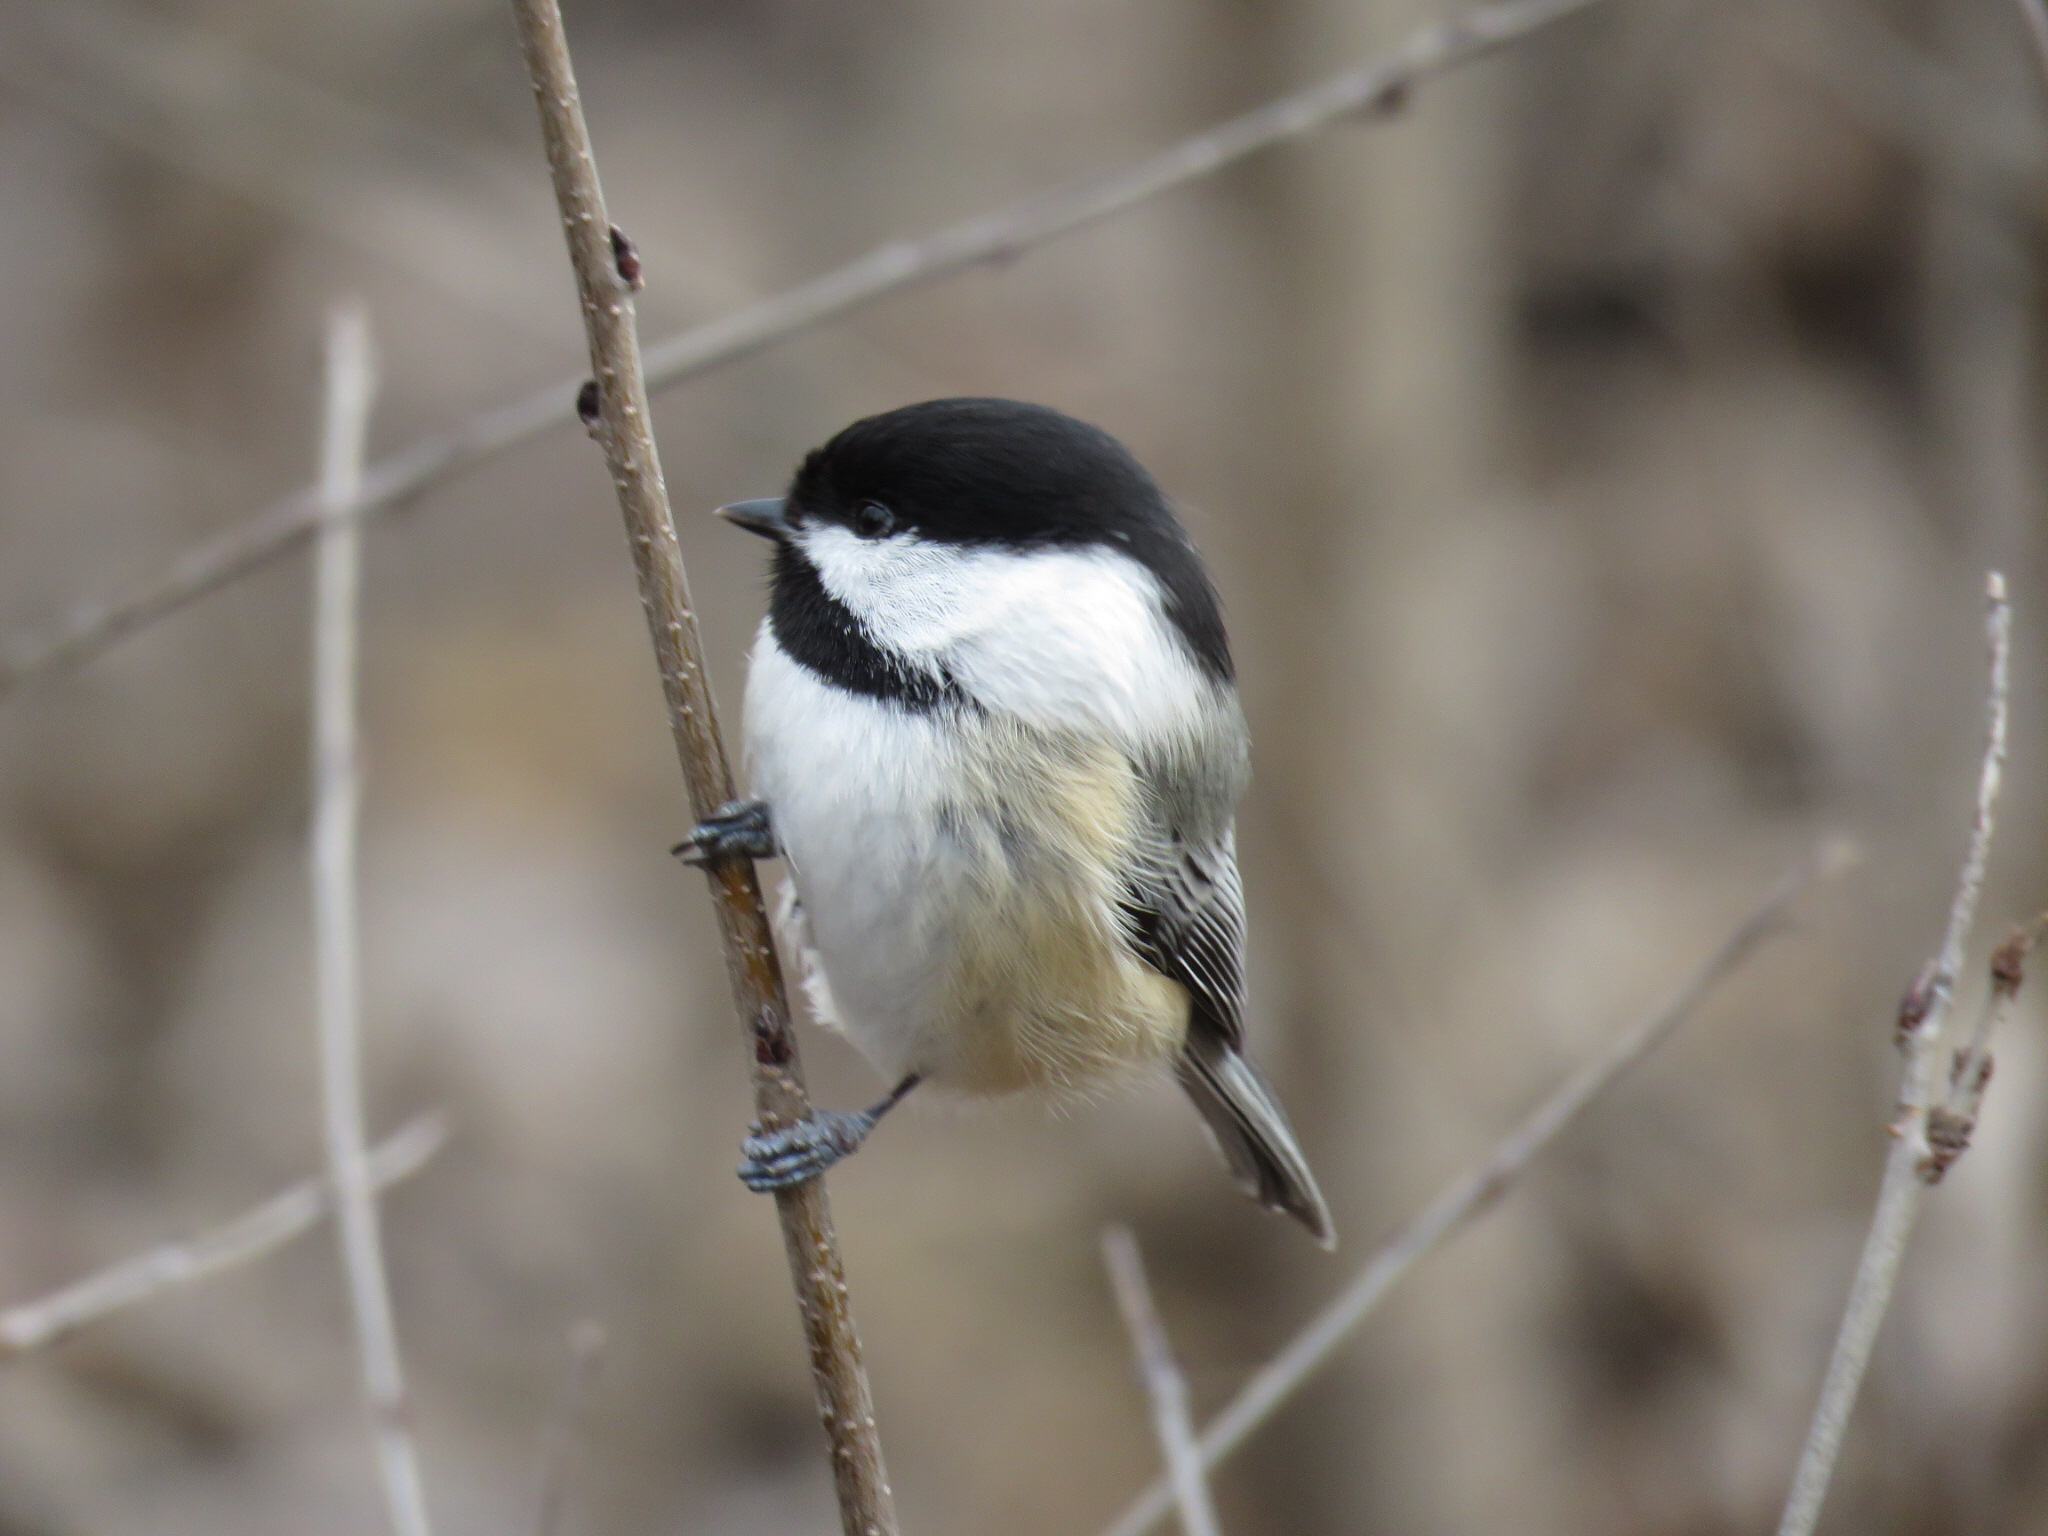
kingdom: Animalia
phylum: Chordata
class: Aves
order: Passeriformes
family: Paridae
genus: Poecile
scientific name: Poecile atricapillus
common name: Black-capped chickadee
